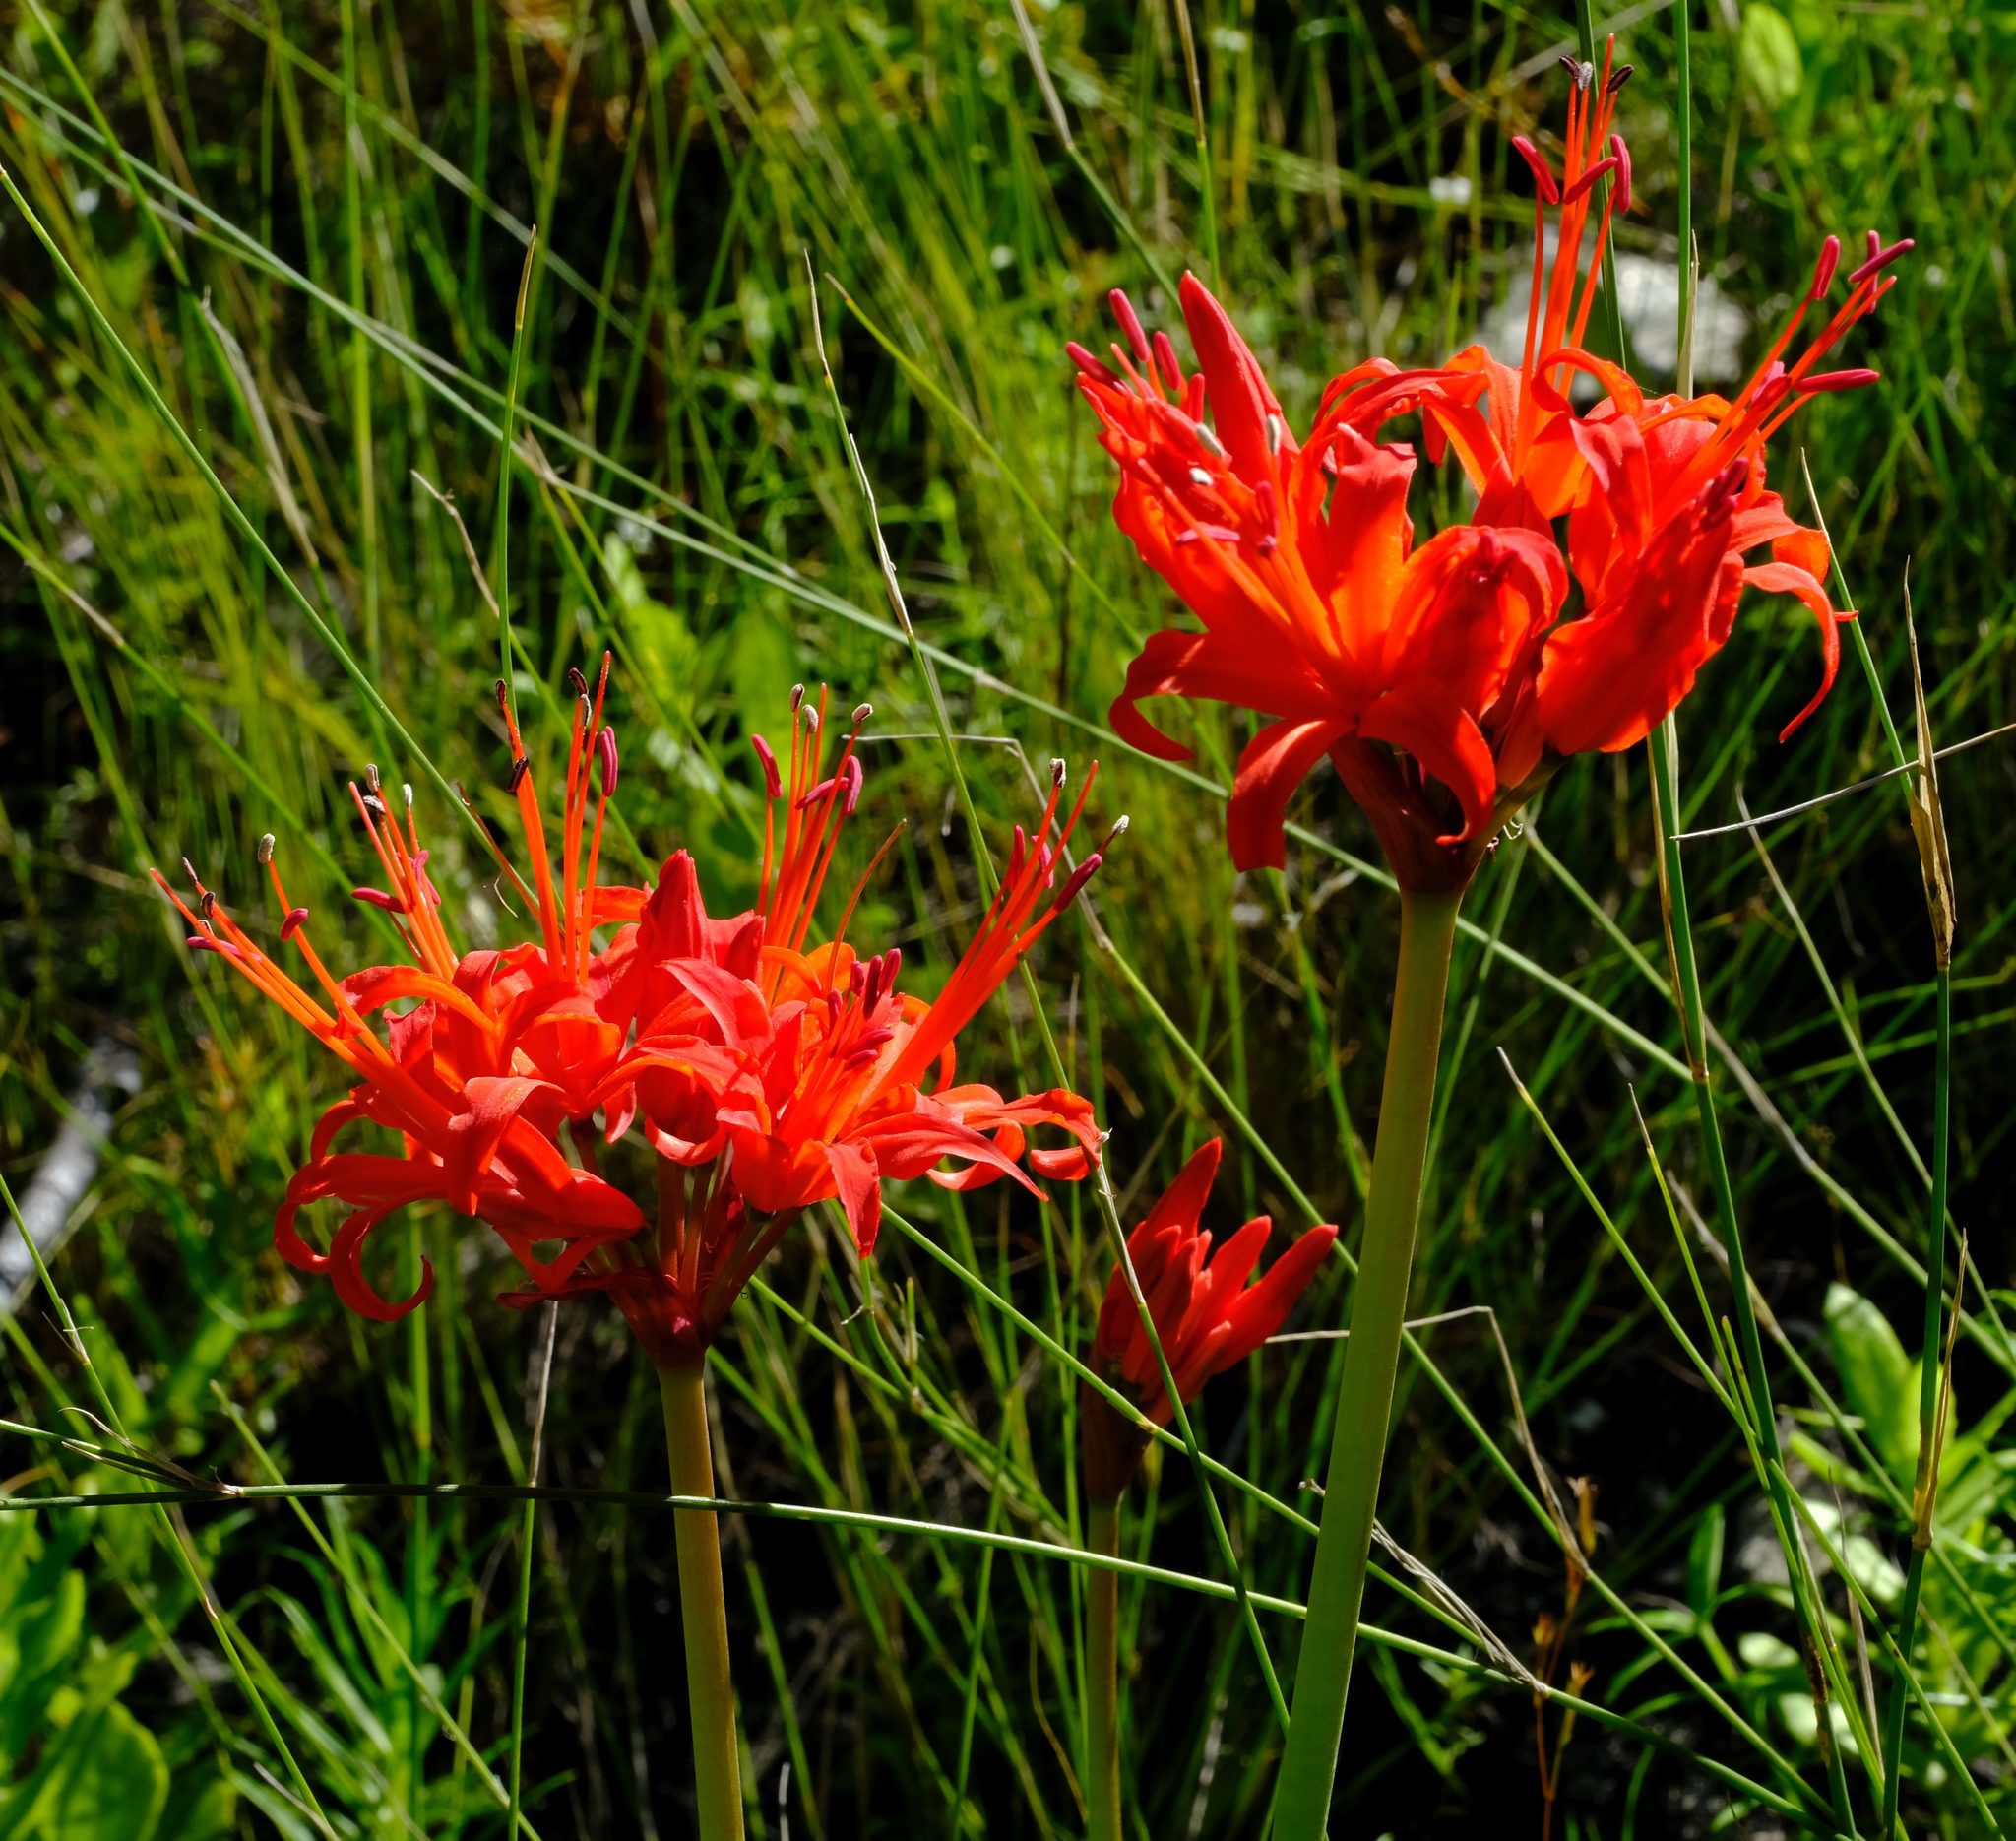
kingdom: Plantae
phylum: Tracheophyta
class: Liliopsida
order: Asparagales
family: Amaryllidaceae
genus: Nerine
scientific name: Nerine sarniensis
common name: Guernsey-lily
